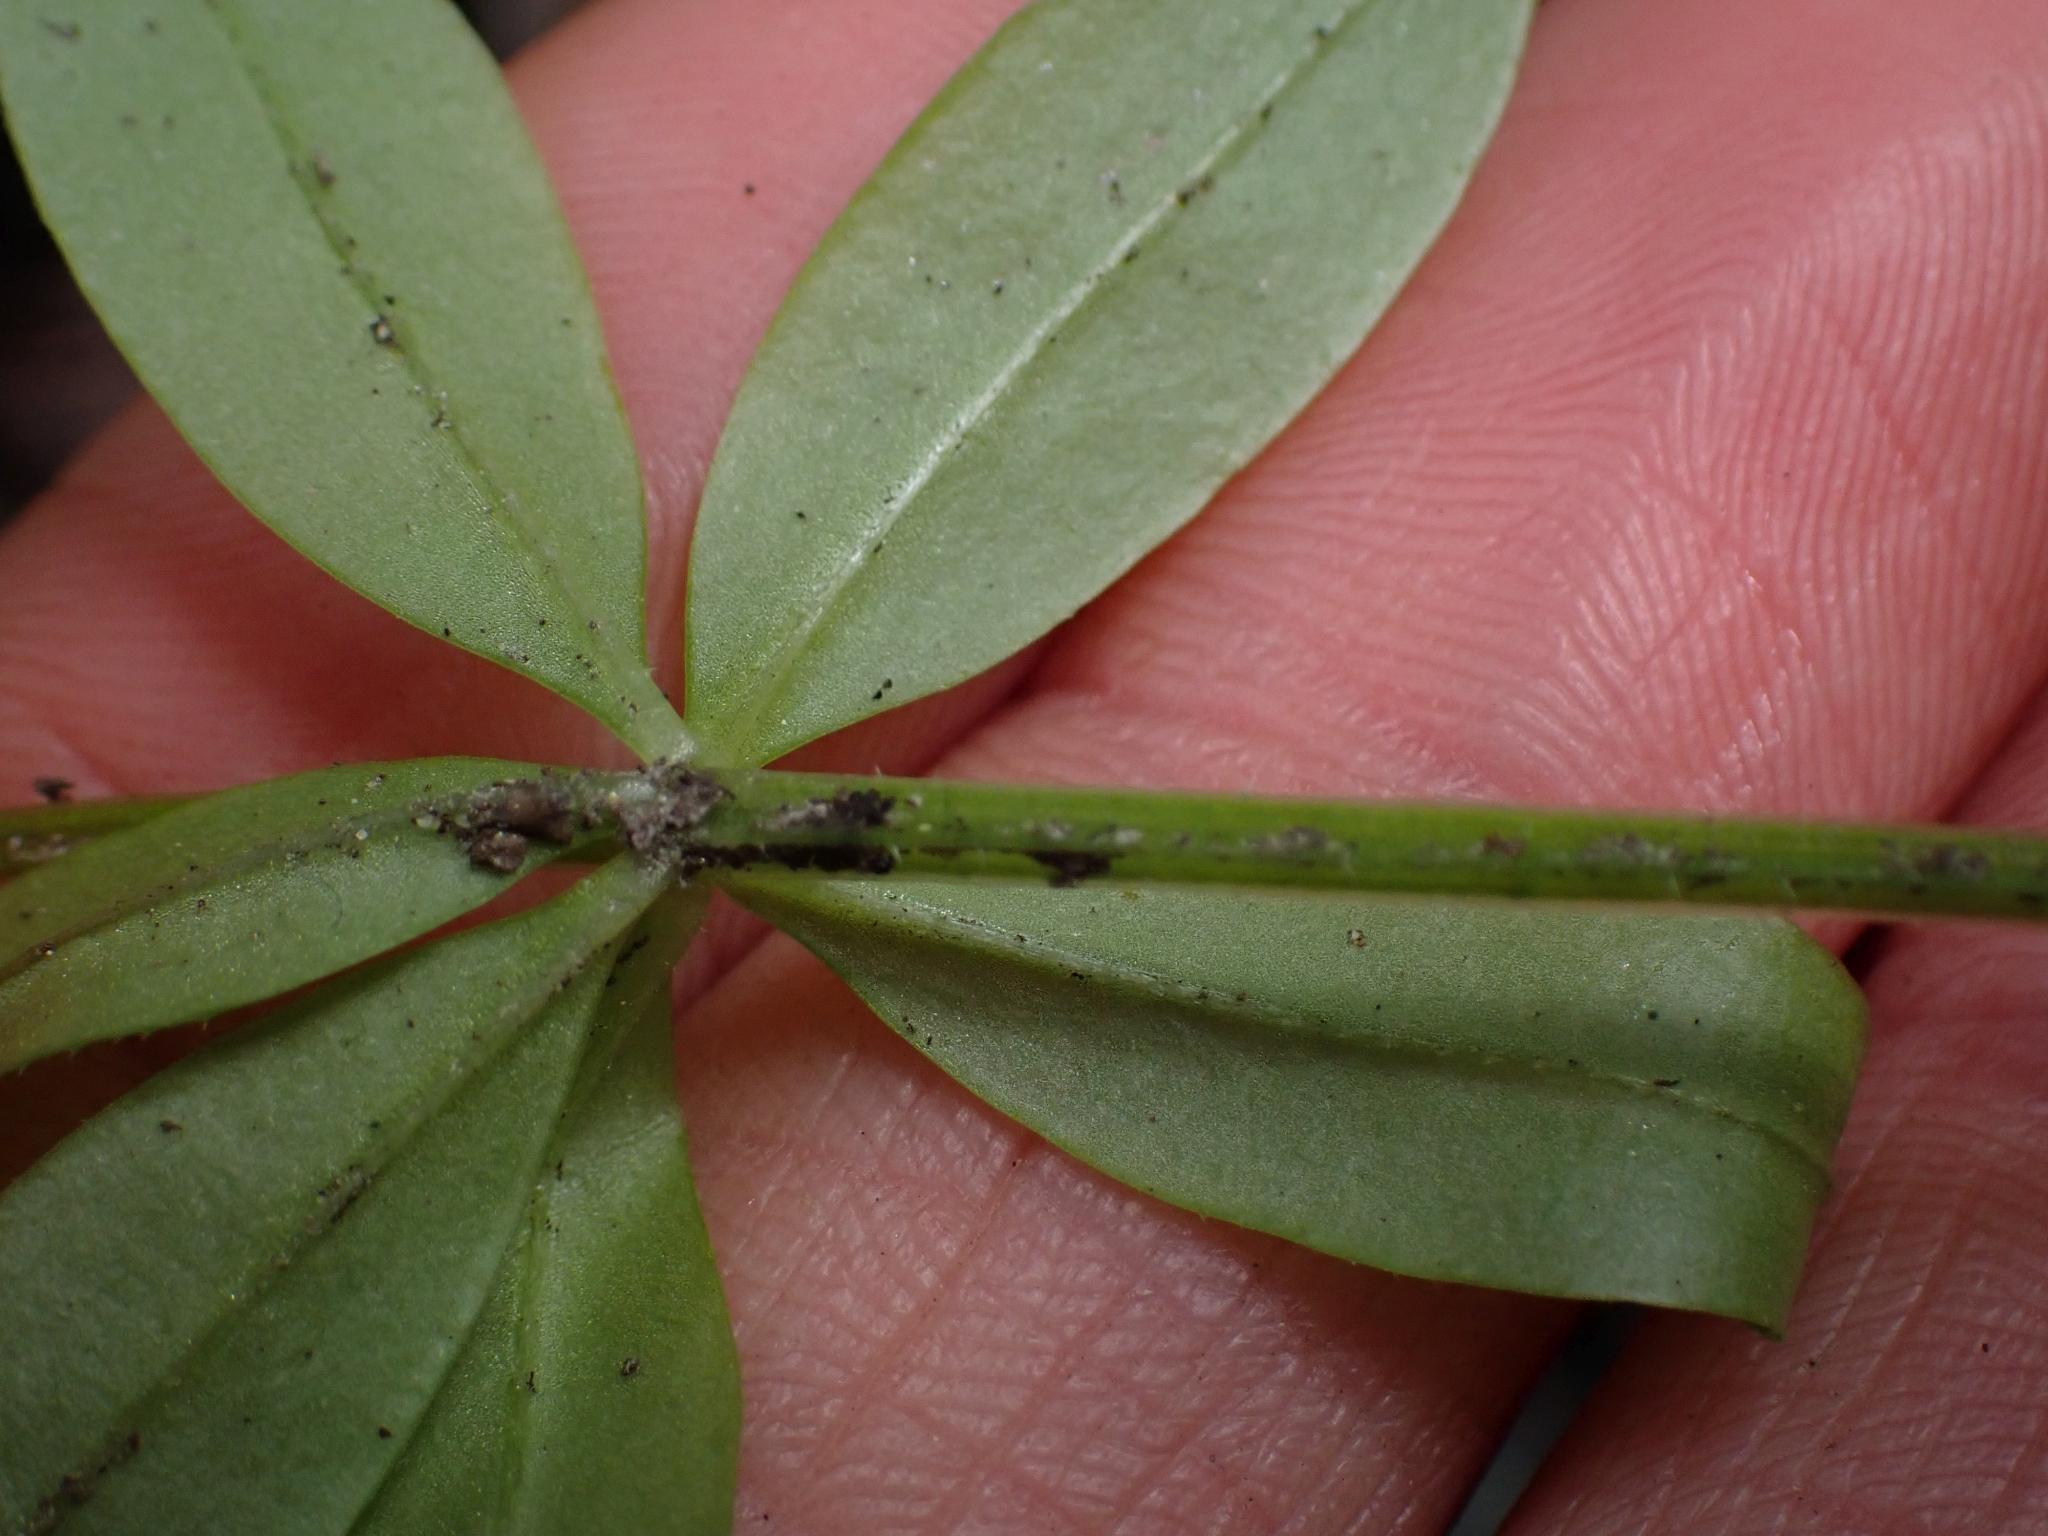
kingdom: Plantae
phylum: Tracheophyta
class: Magnoliopsida
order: Gentianales
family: Rubiaceae
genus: Galium
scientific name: Galium triflorum
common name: Fragrant bedstraw
